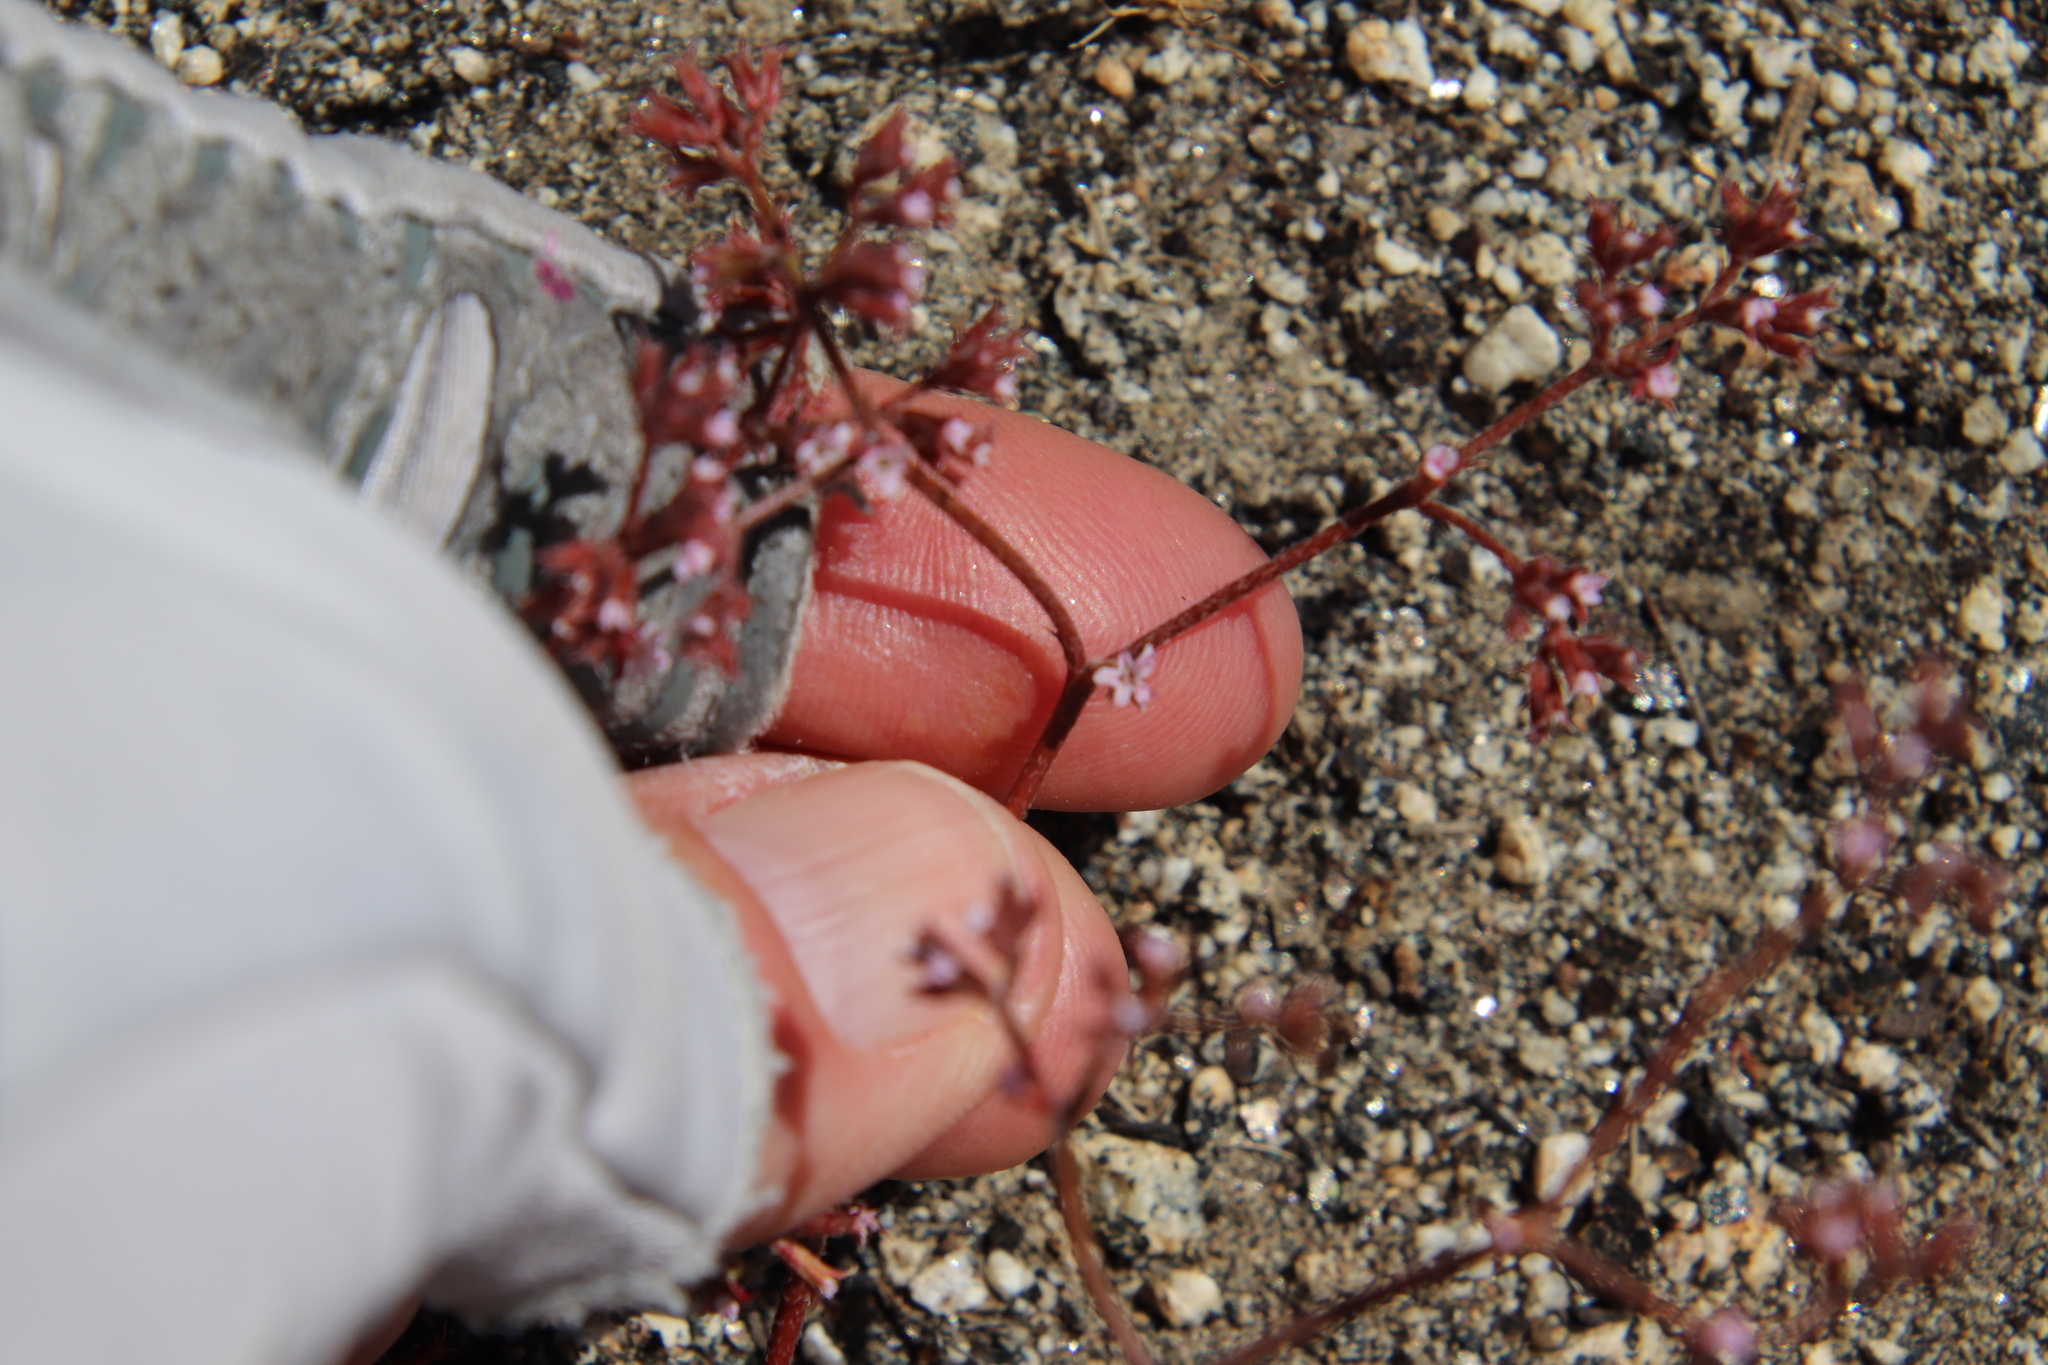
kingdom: Plantae
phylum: Tracheophyta
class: Magnoliopsida
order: Caryophyllales
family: Polygonaceae
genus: Chorizanthe
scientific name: Chorizanthe leptotheca
